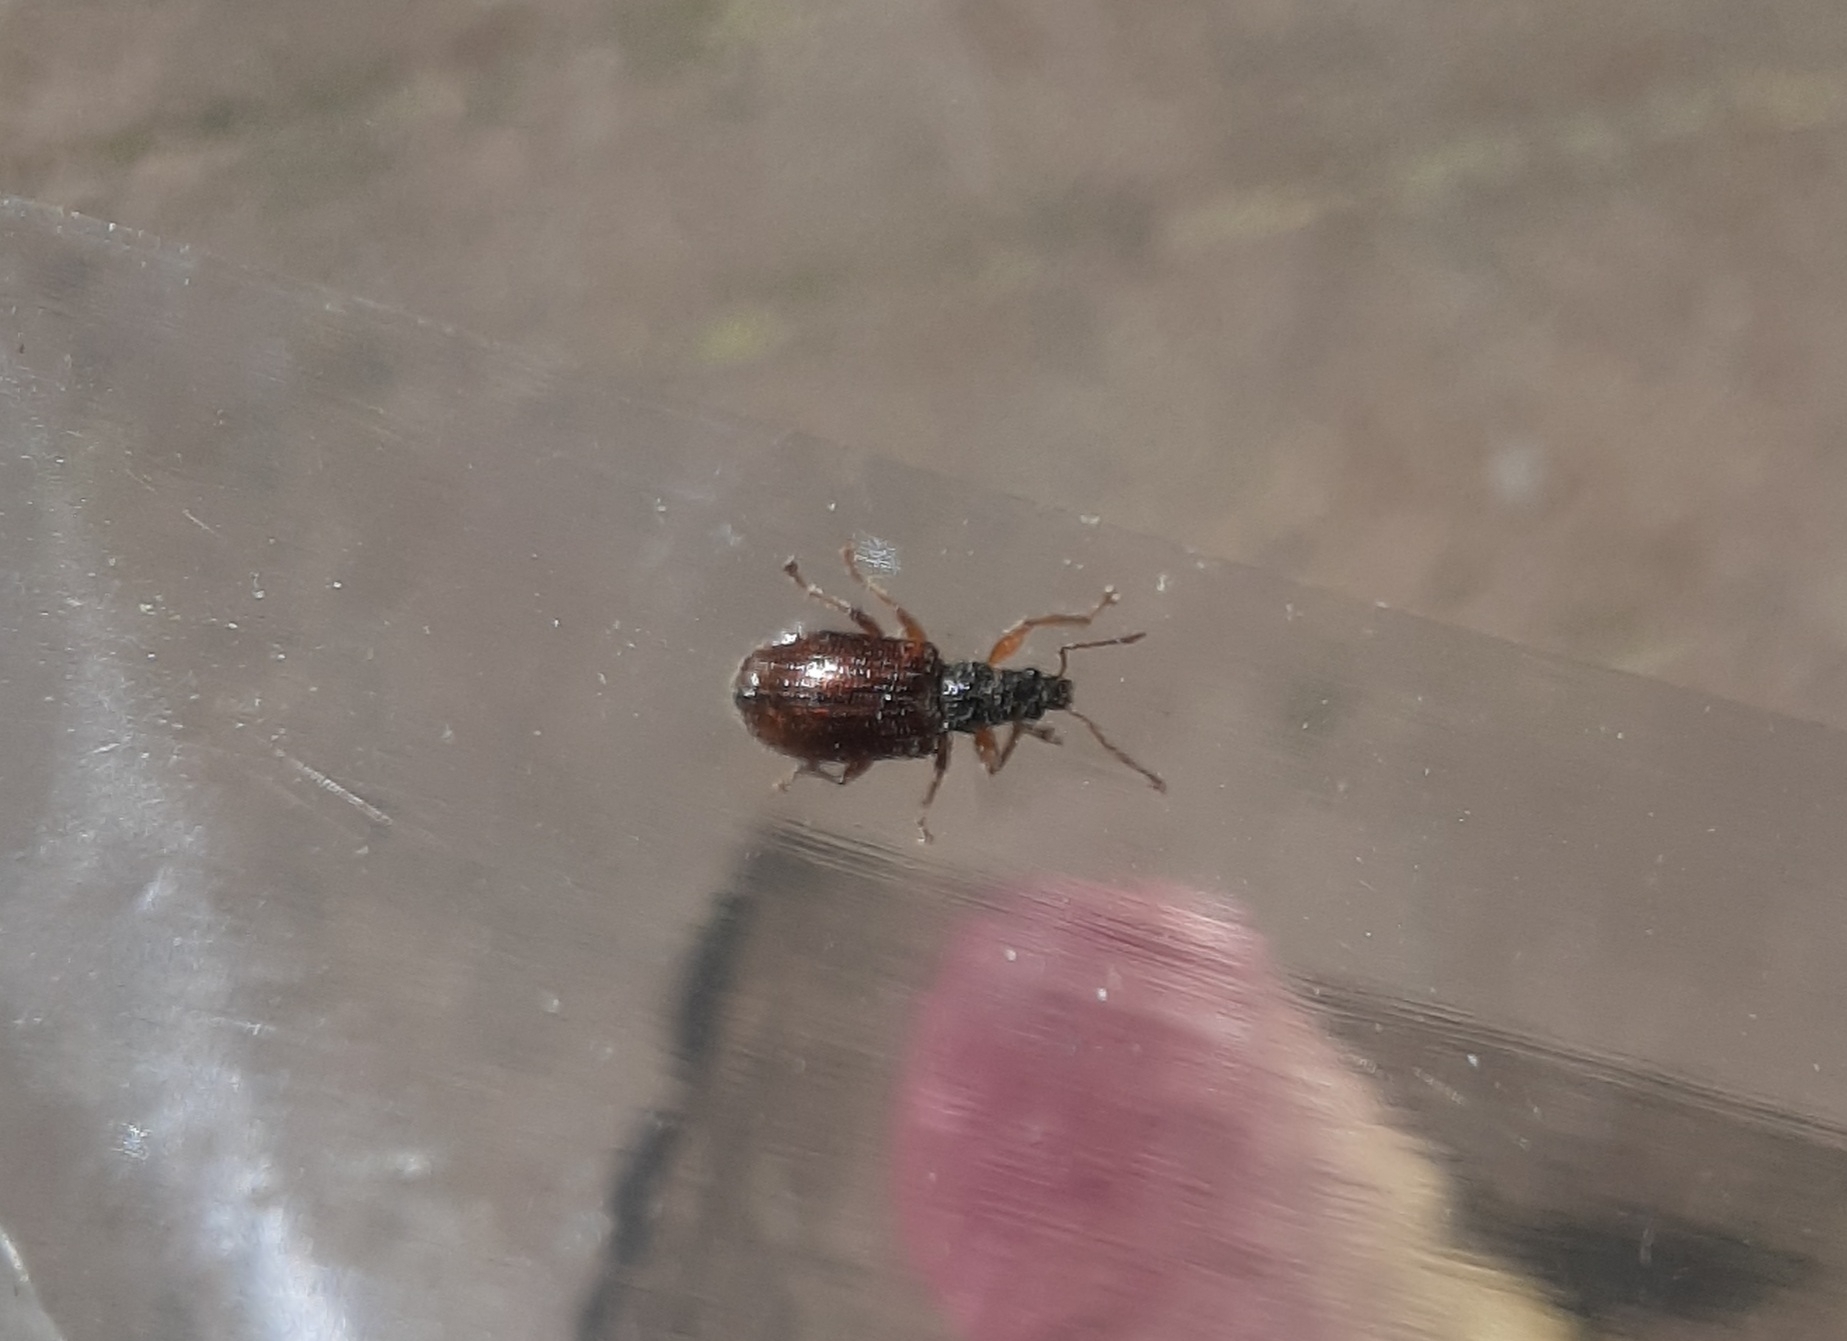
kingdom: Animalia
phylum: Arthropoda
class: Insecta
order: Coleoptera
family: Curculionidae
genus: Phyllobius
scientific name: Phyllobius oblongus
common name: Brown leaf weevil
